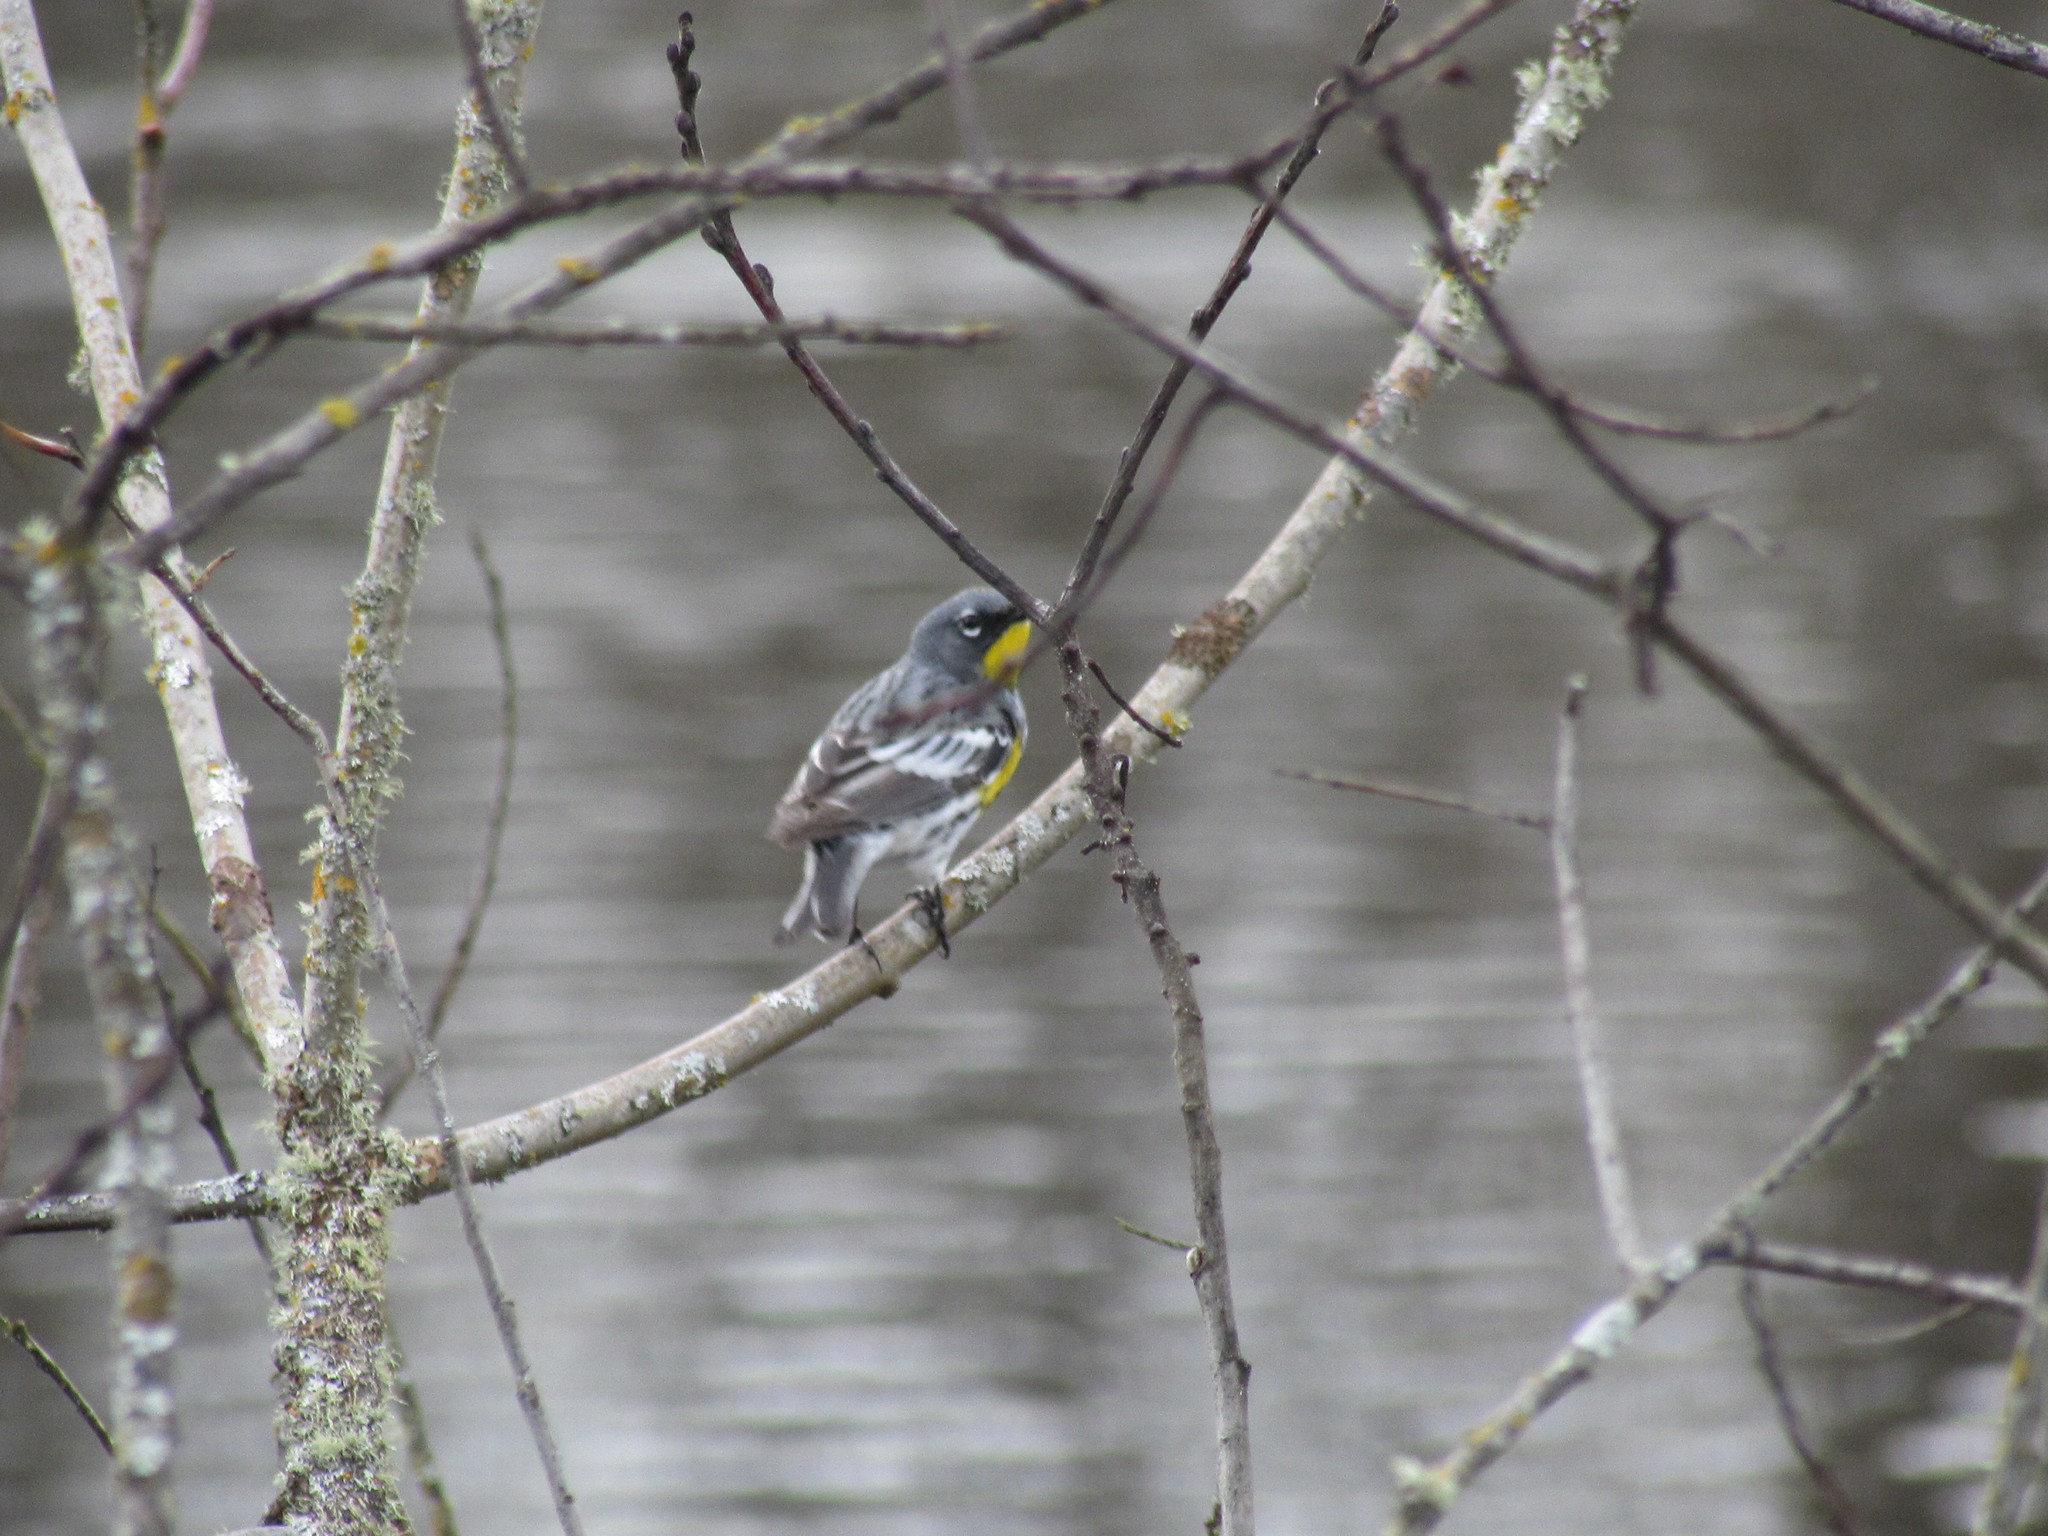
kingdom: Animalia
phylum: Chordata
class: Aves
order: Passeriformes
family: Parulidae
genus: Setophaga
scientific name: Setophaga coronata
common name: Myrtle warbler
